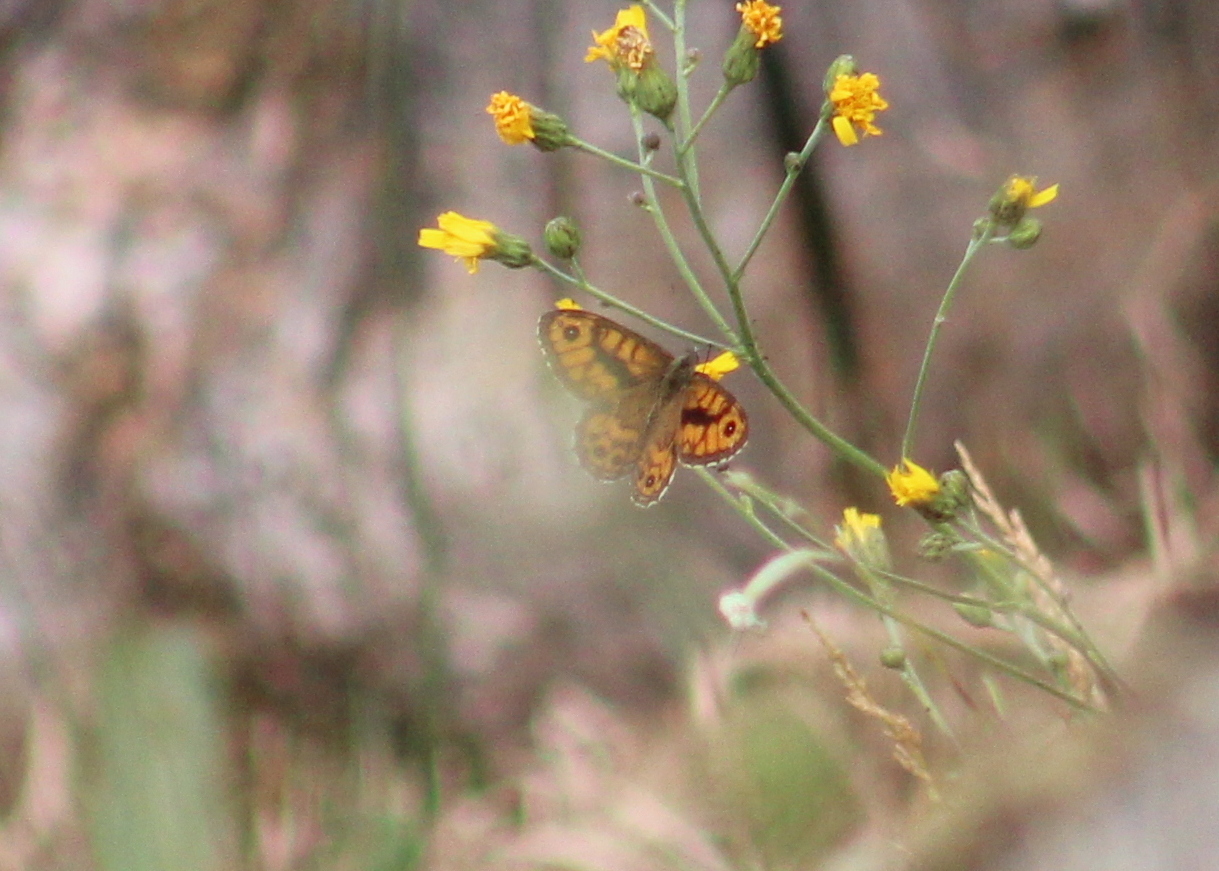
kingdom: Animalia
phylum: Arthropoda
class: Insecta
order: Lepidoptera
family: Nymphalidae
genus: Pararge
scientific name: Pararge Lasiommata megera
